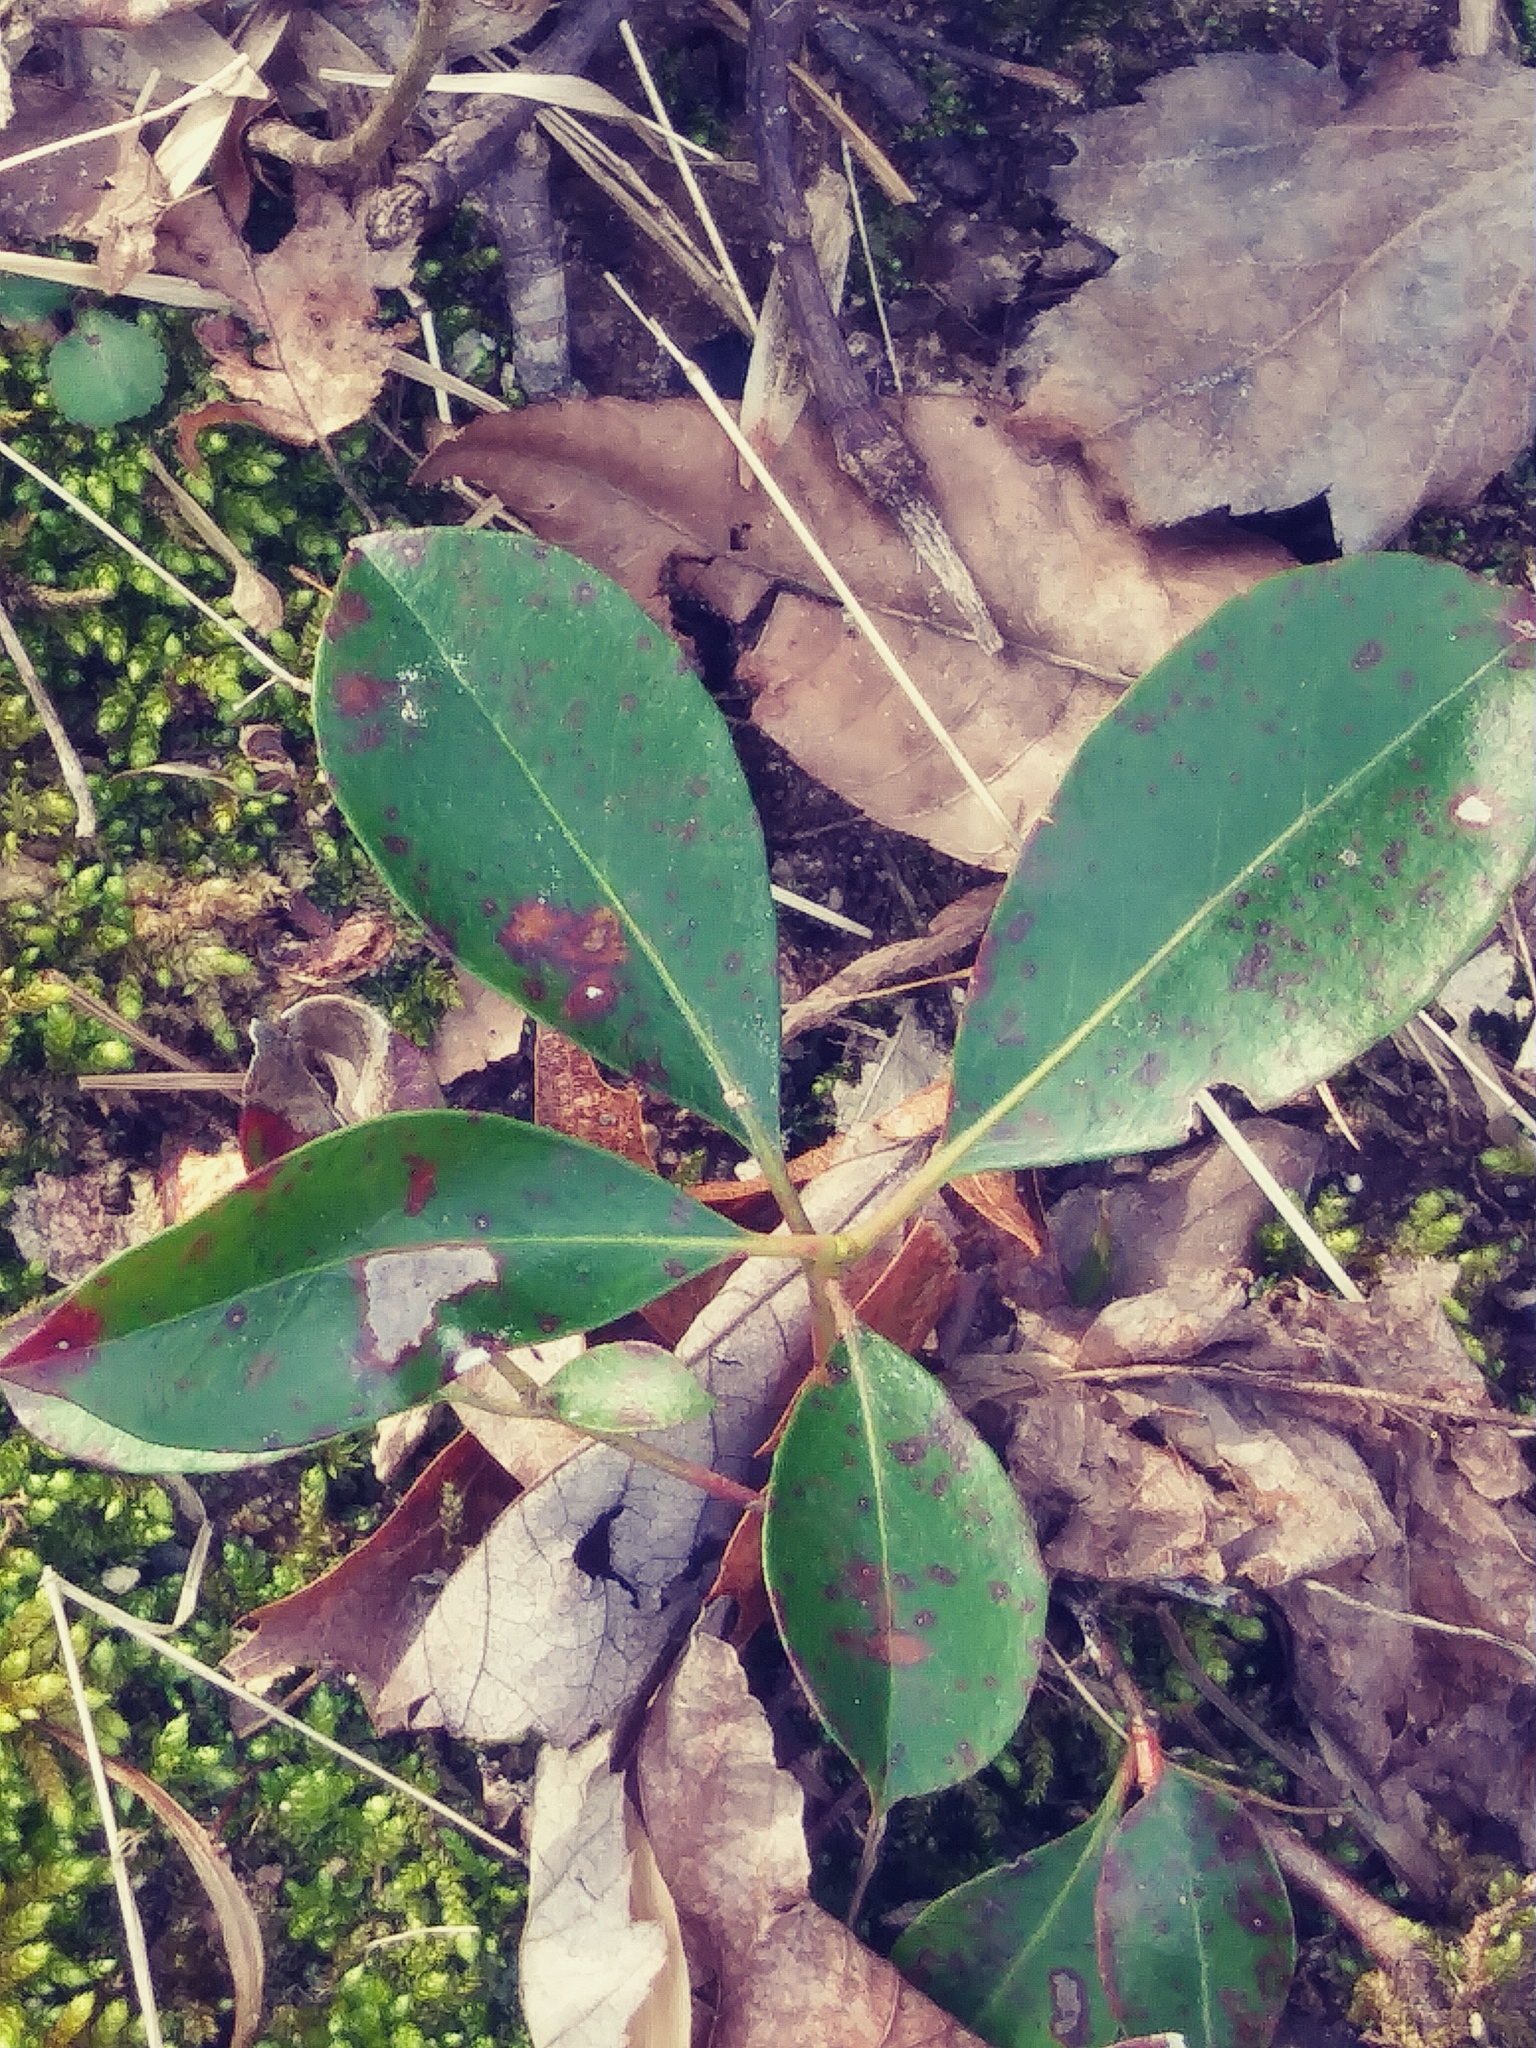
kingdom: Plantae
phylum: Tracheophyta
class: Magnoliopsida
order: Ericales
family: Ericaceae
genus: Kalmia
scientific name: Kalmia latifolia
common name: Mountain-laurel
